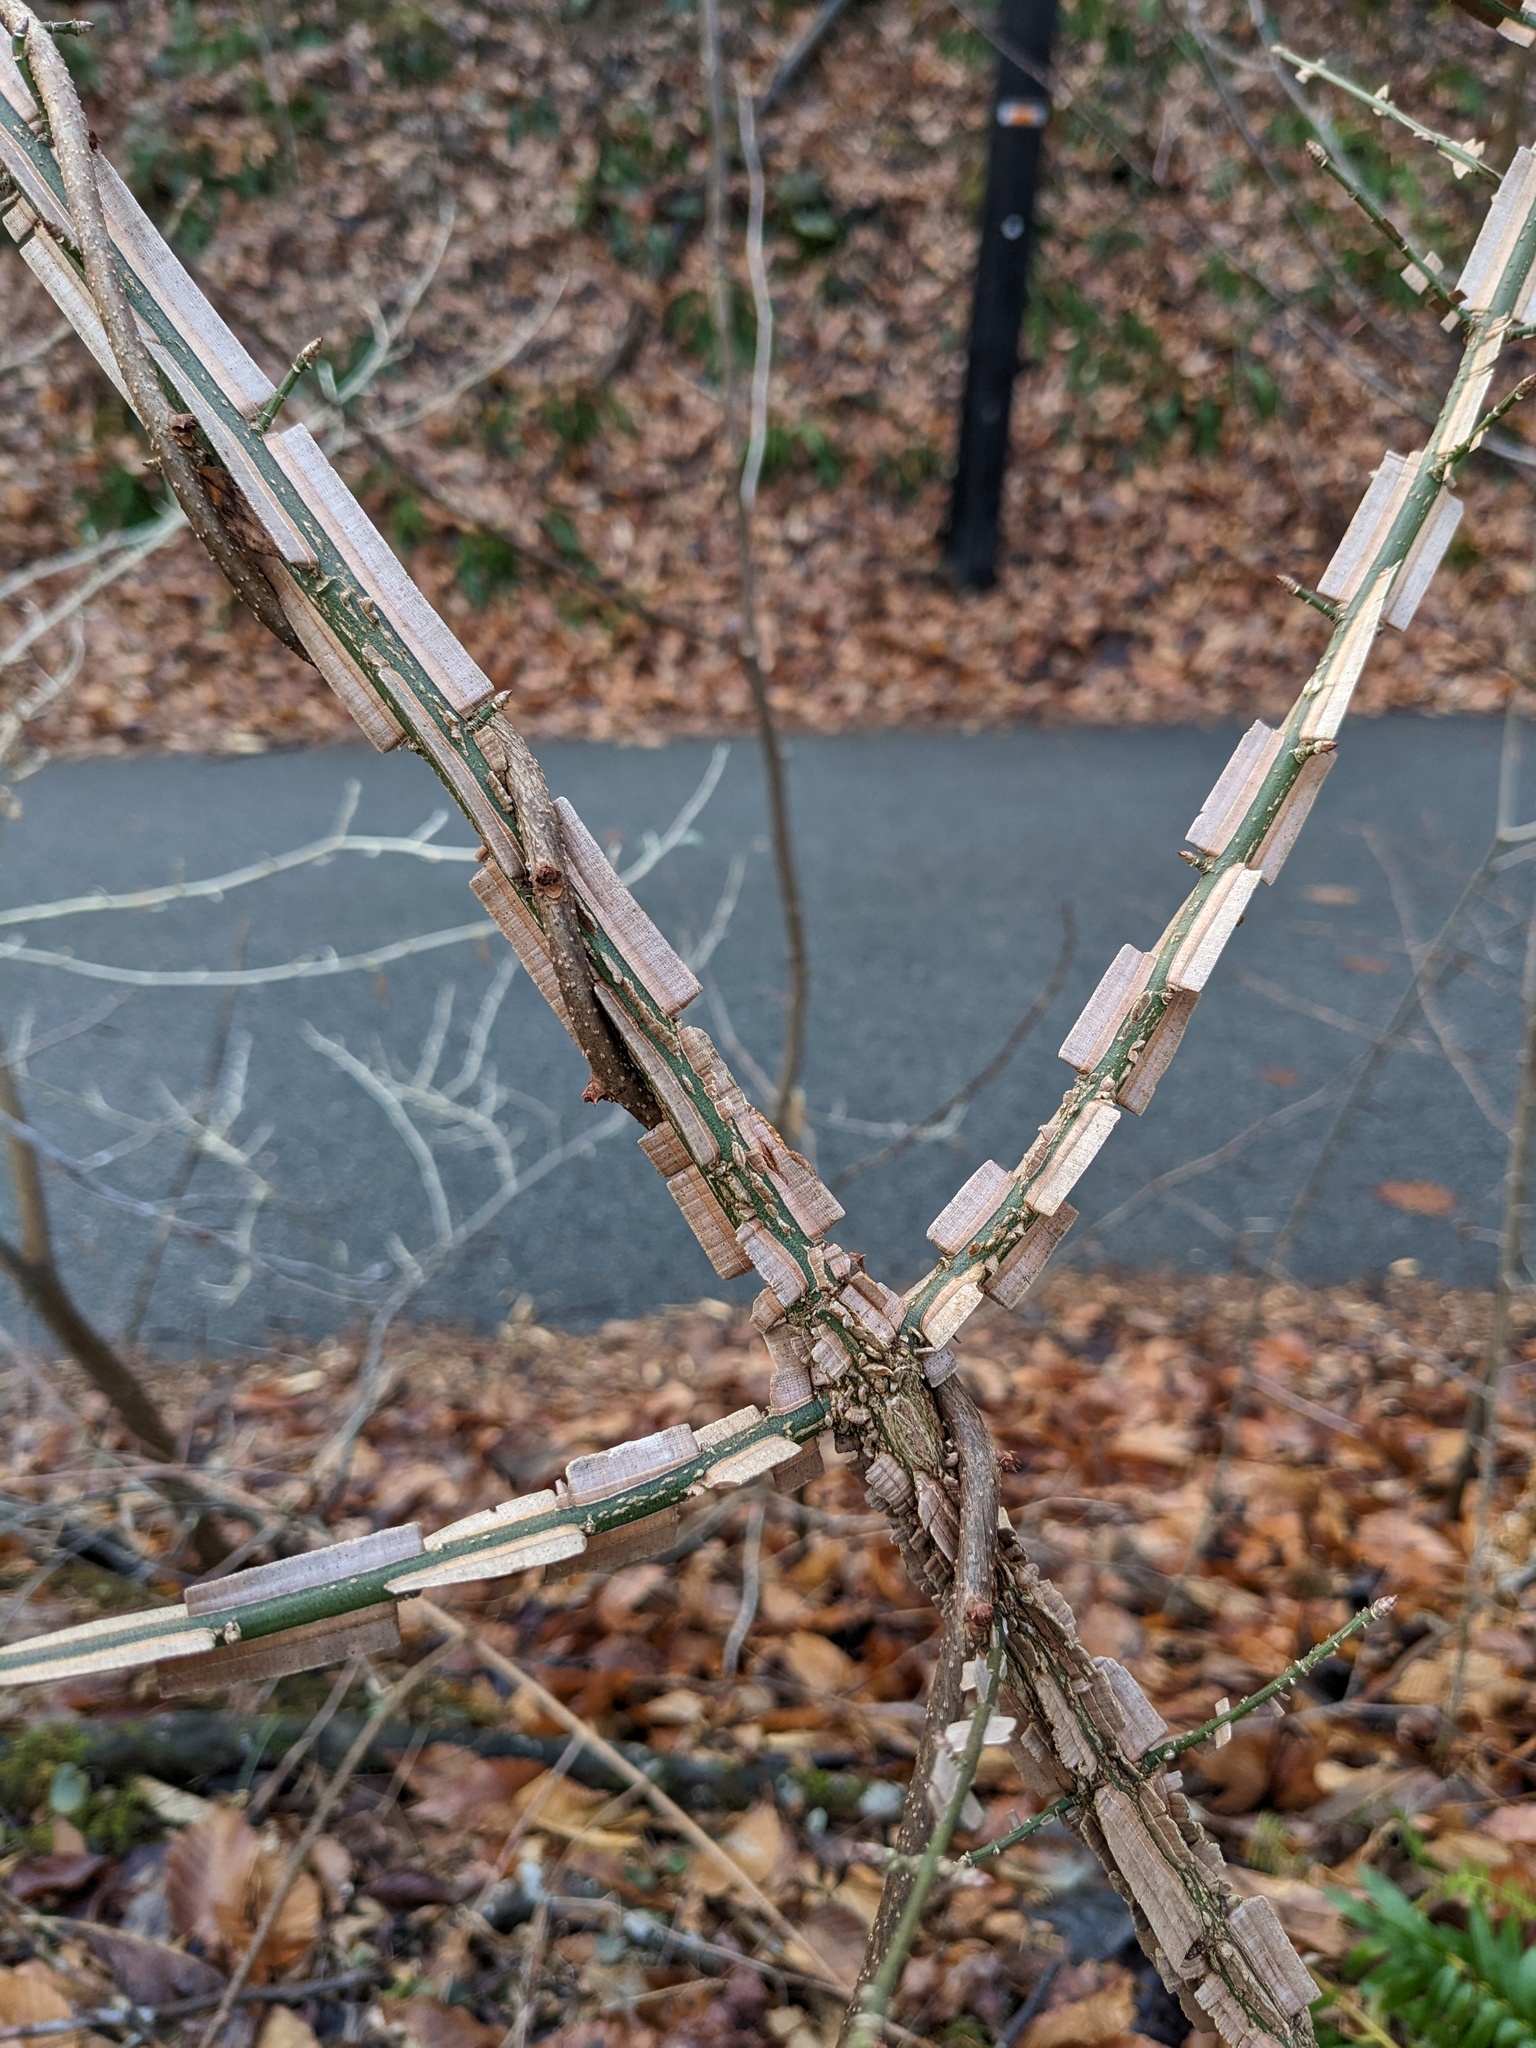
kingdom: Plantae
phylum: Tracheophyta
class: Magnoliopsida
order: Celastrales
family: Celastraceae
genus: Euonymus
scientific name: Euonymus alatus
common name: Winged euonymus
